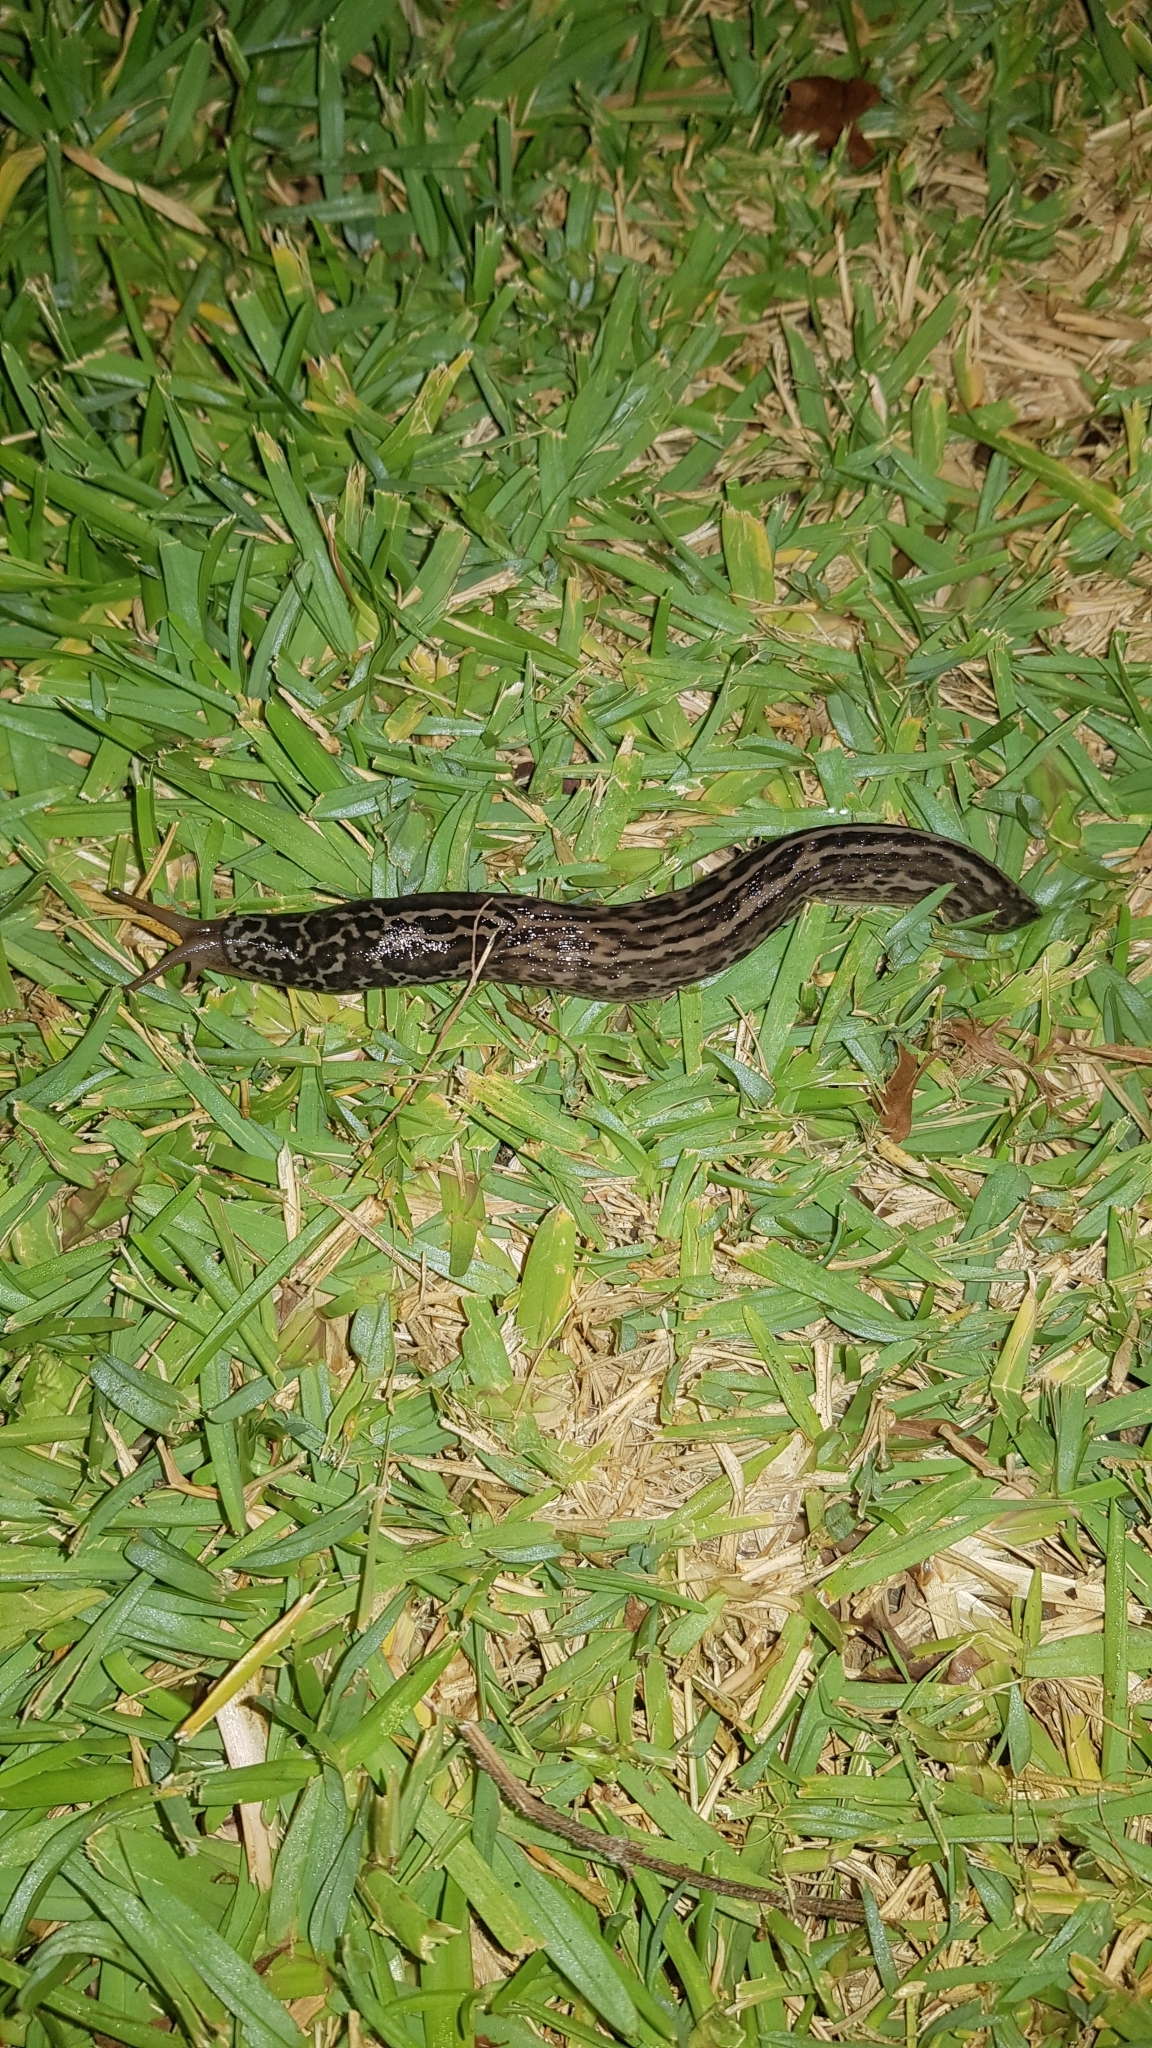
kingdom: Animalia
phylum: Mollusca
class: Gastropoda
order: Stylommatophora
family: Limacidae
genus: Limax
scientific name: Limax maximus
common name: Great grey slug
